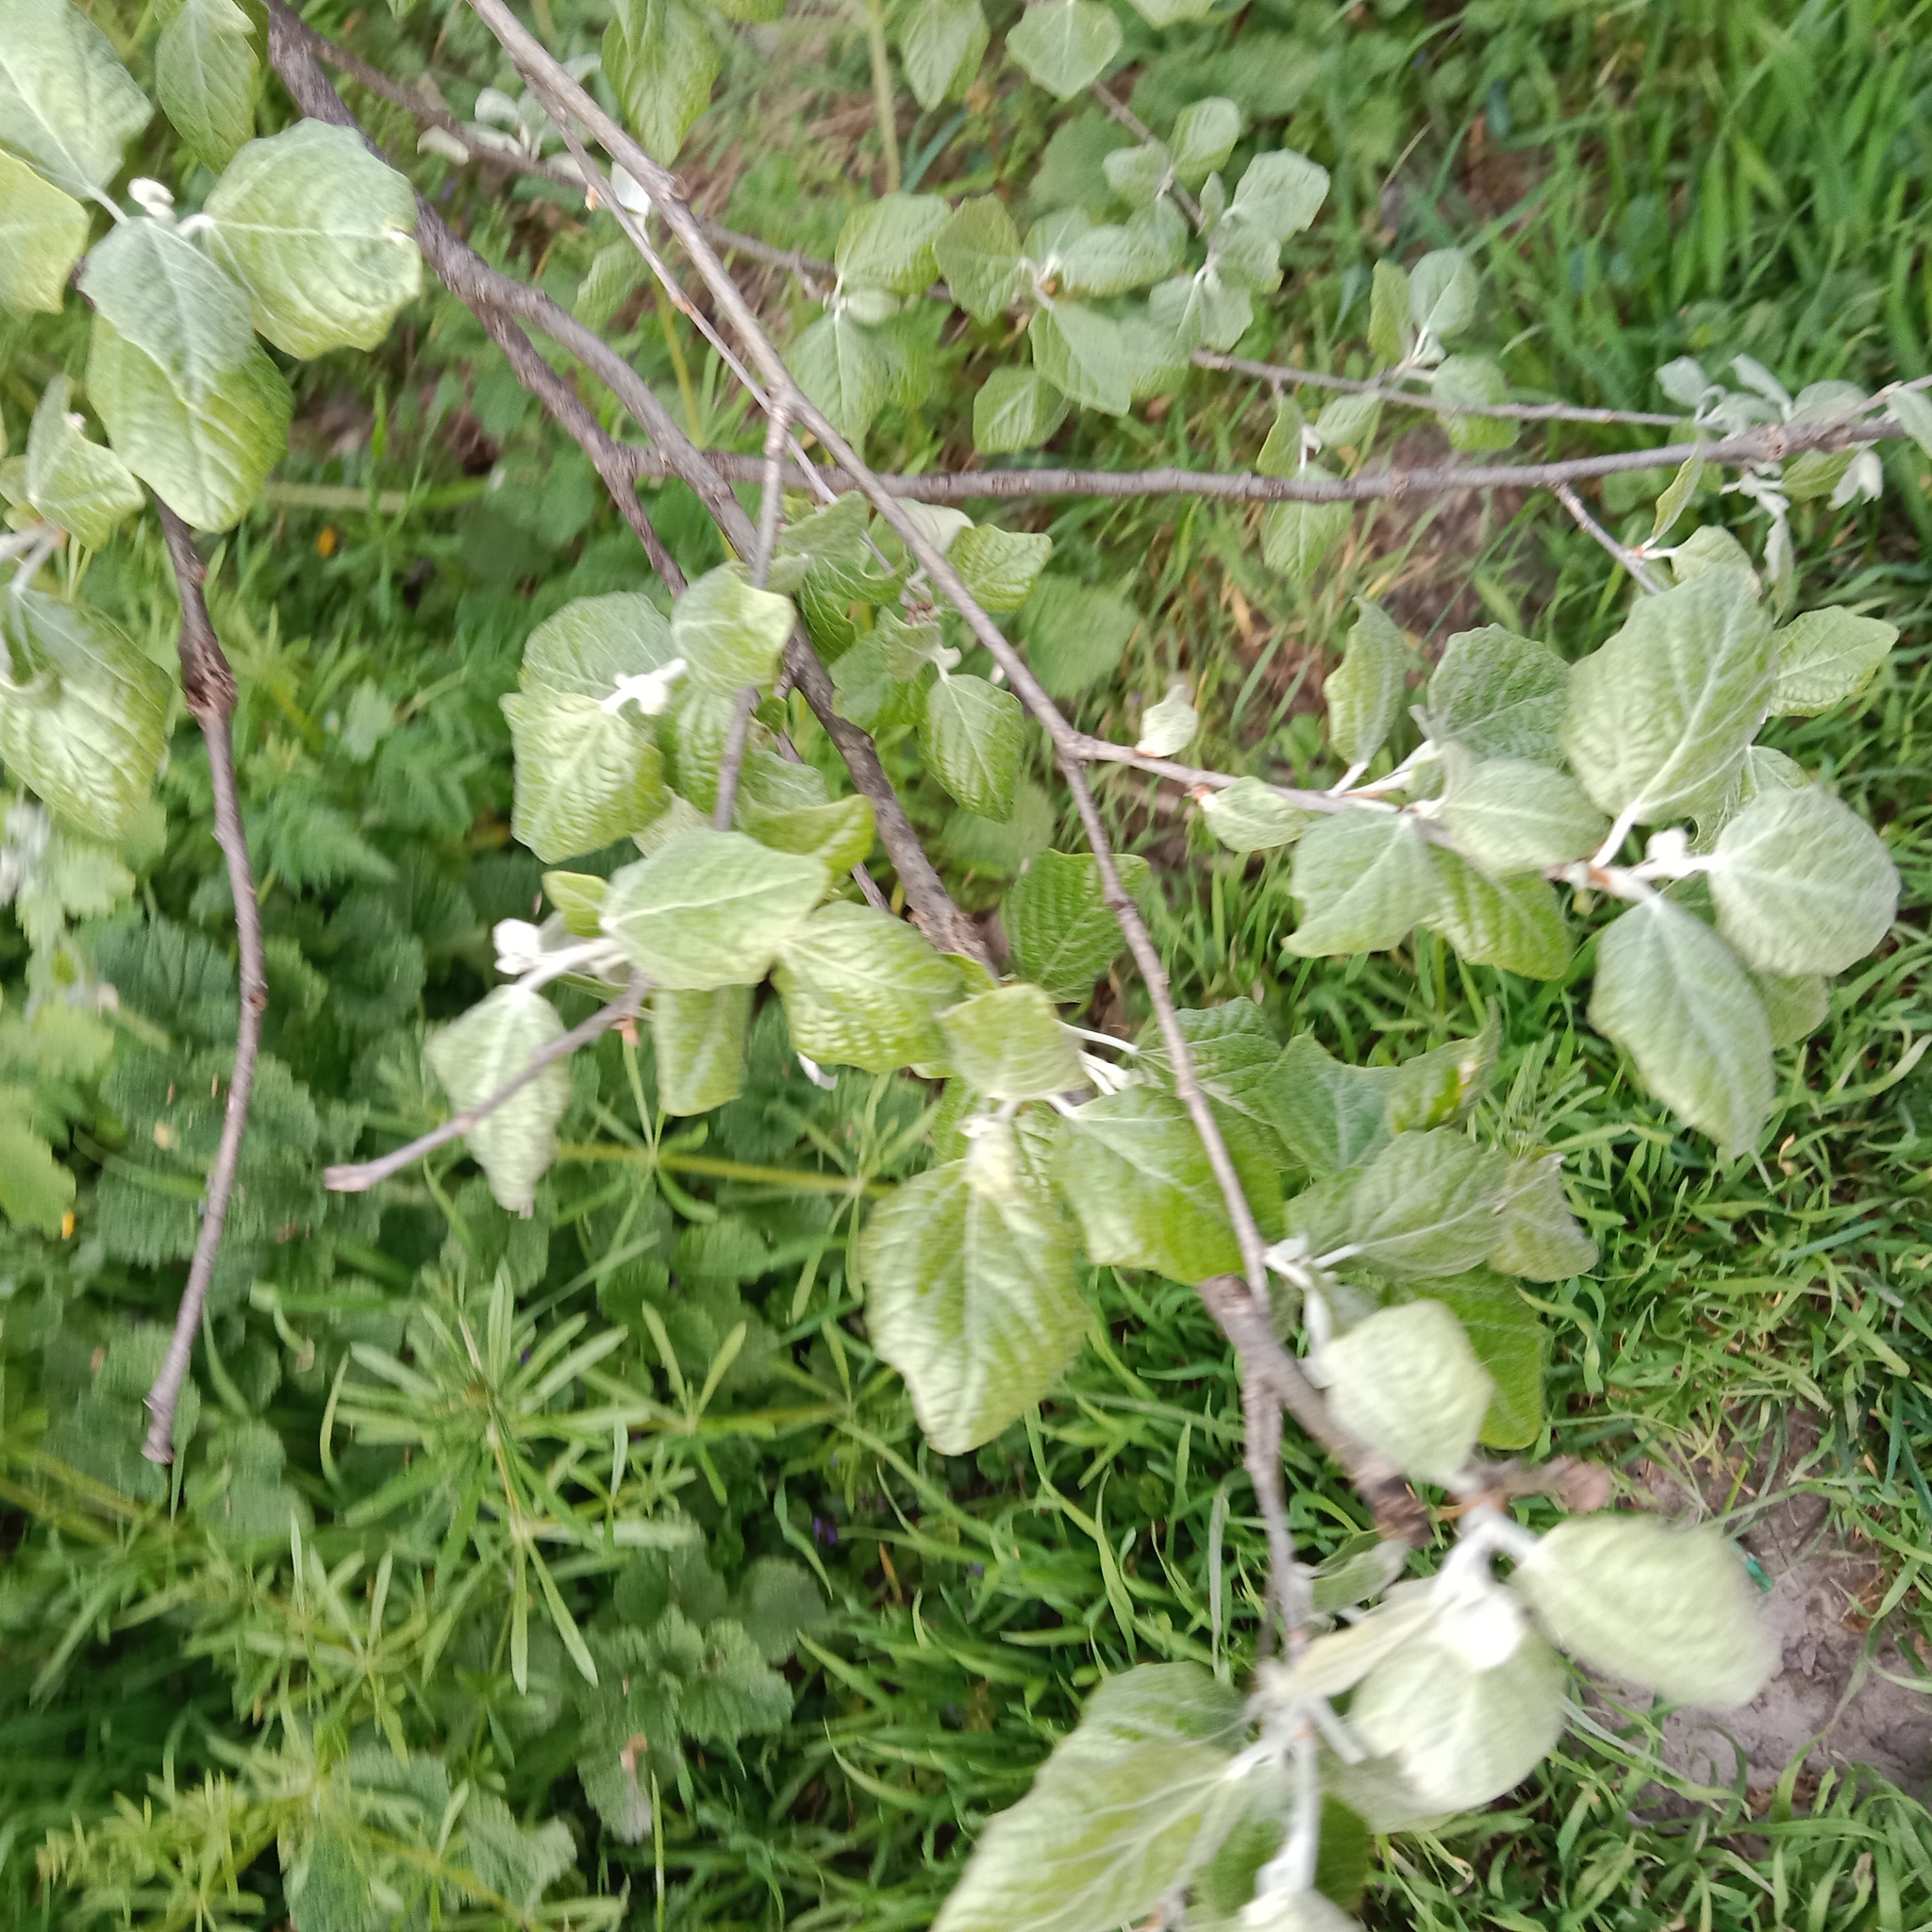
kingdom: Plantae
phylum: Tracheophyta
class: Magnoliopsida
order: Malpighiales
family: Salicaceae
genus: Populus
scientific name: Populus alba
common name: White poplar
